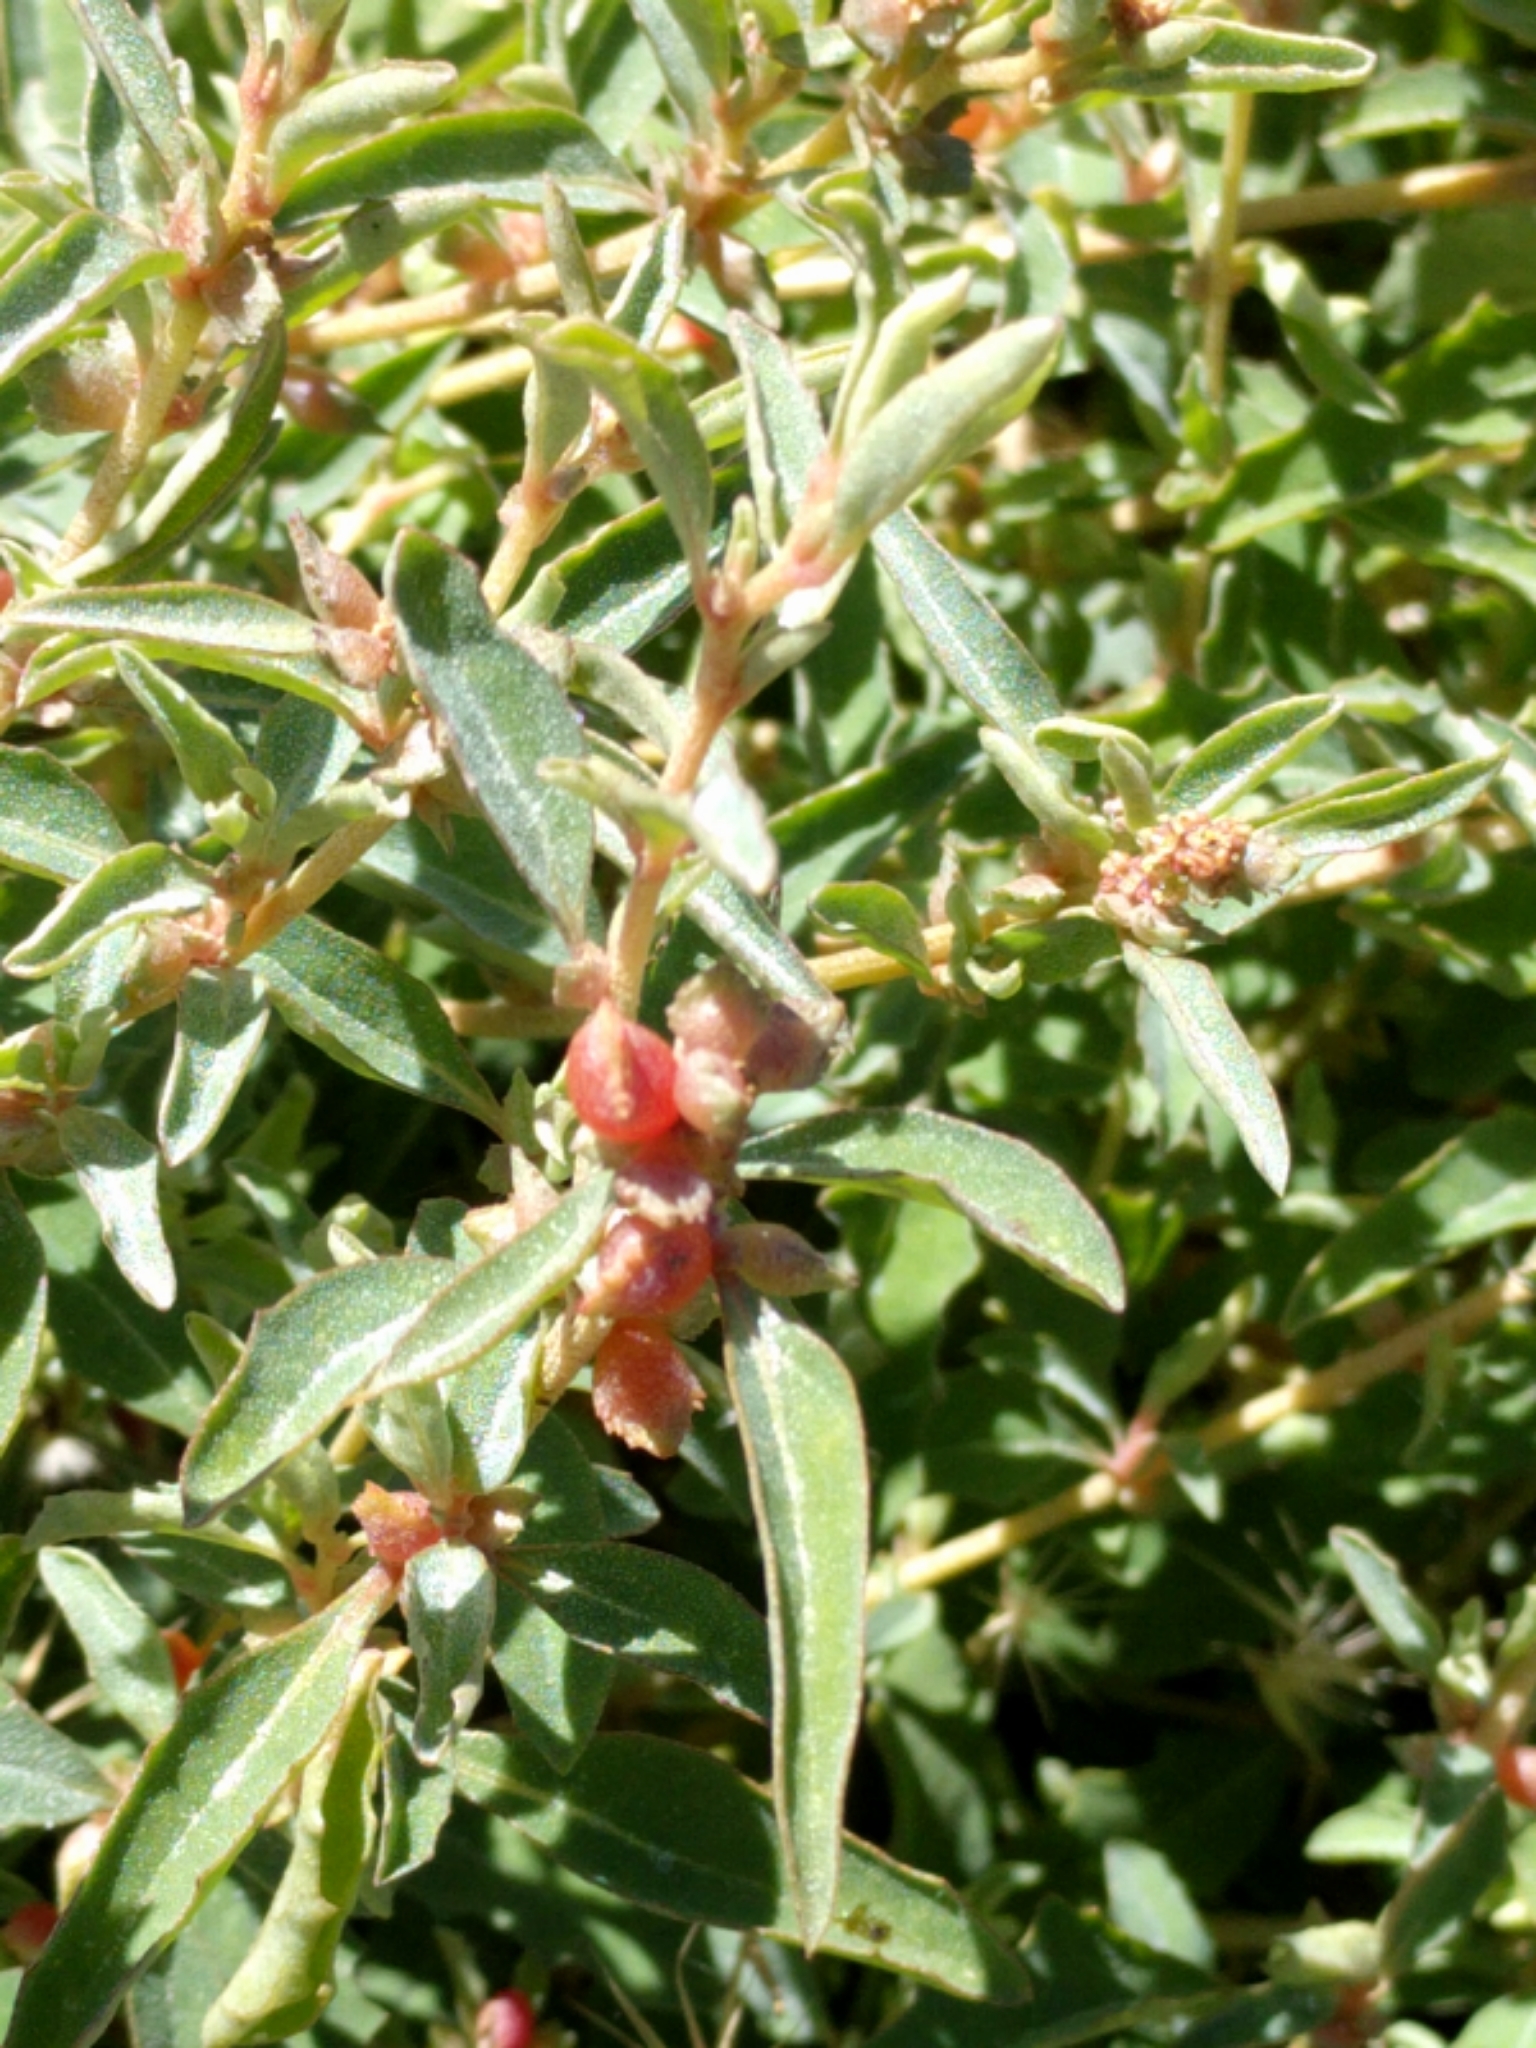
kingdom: Plantae
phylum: Tracheophyta
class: Magnoliopsida
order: Caryophyllales
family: Amaranthaceae
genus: Atriplex
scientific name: Atriplex semibaccata
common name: Australian saltbush
